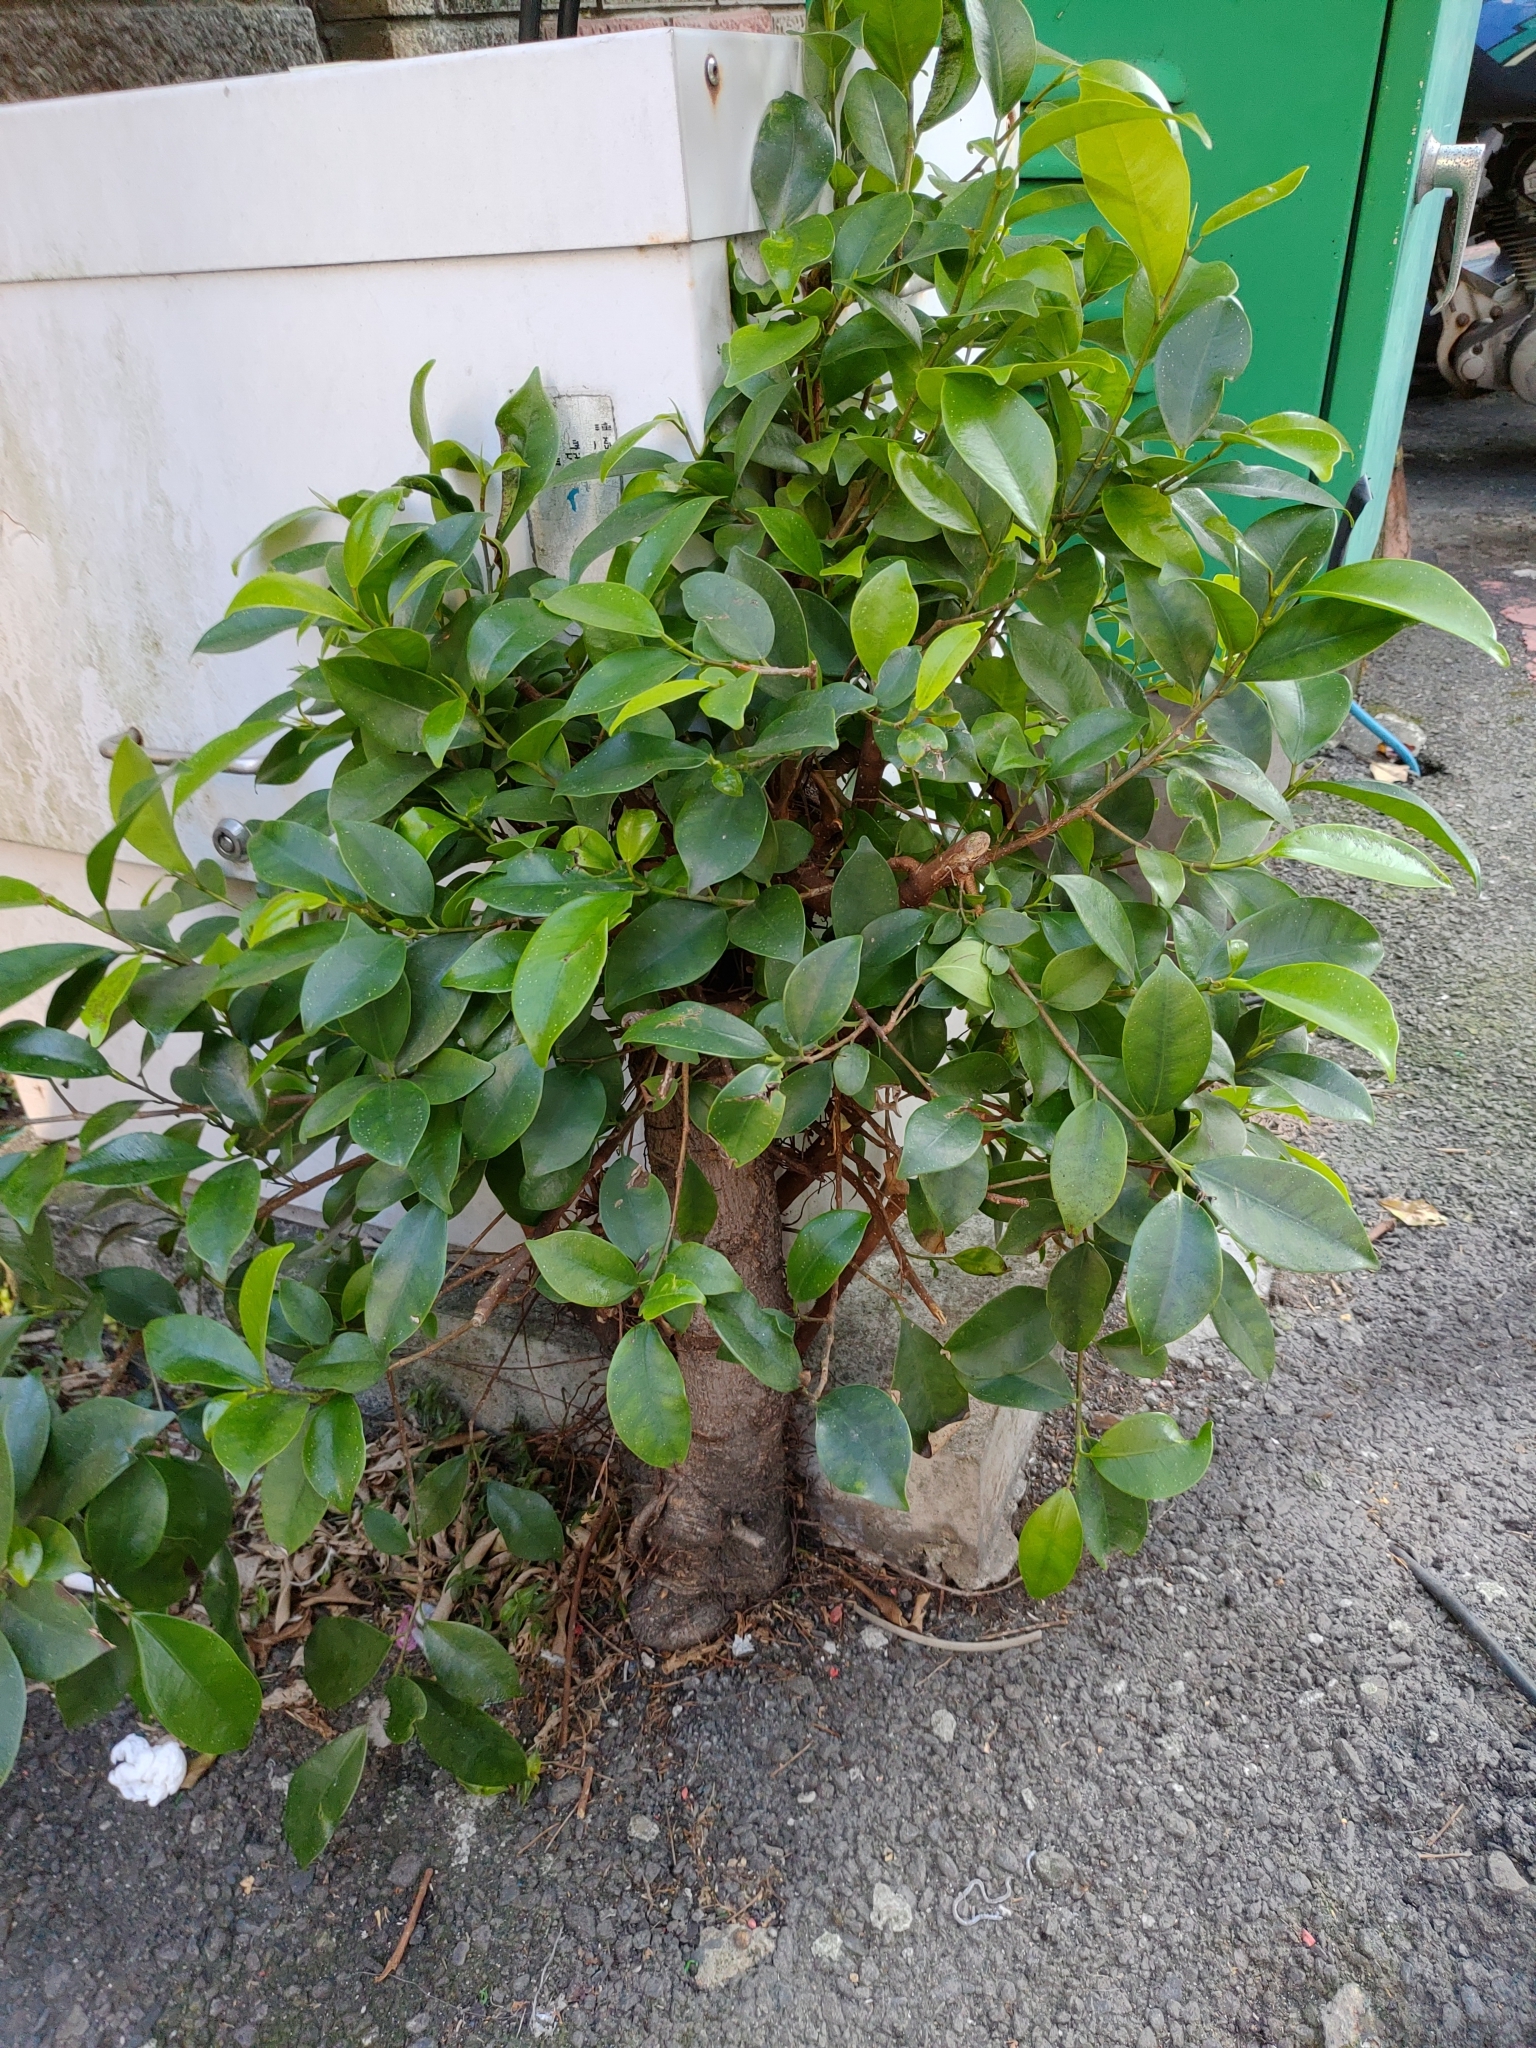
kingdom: Plantae
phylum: Tracheophyta
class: Magnoliopsida
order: Rosales
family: Moraceae
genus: Ficus
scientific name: Ficus microcarpa
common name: Chinese banyan
